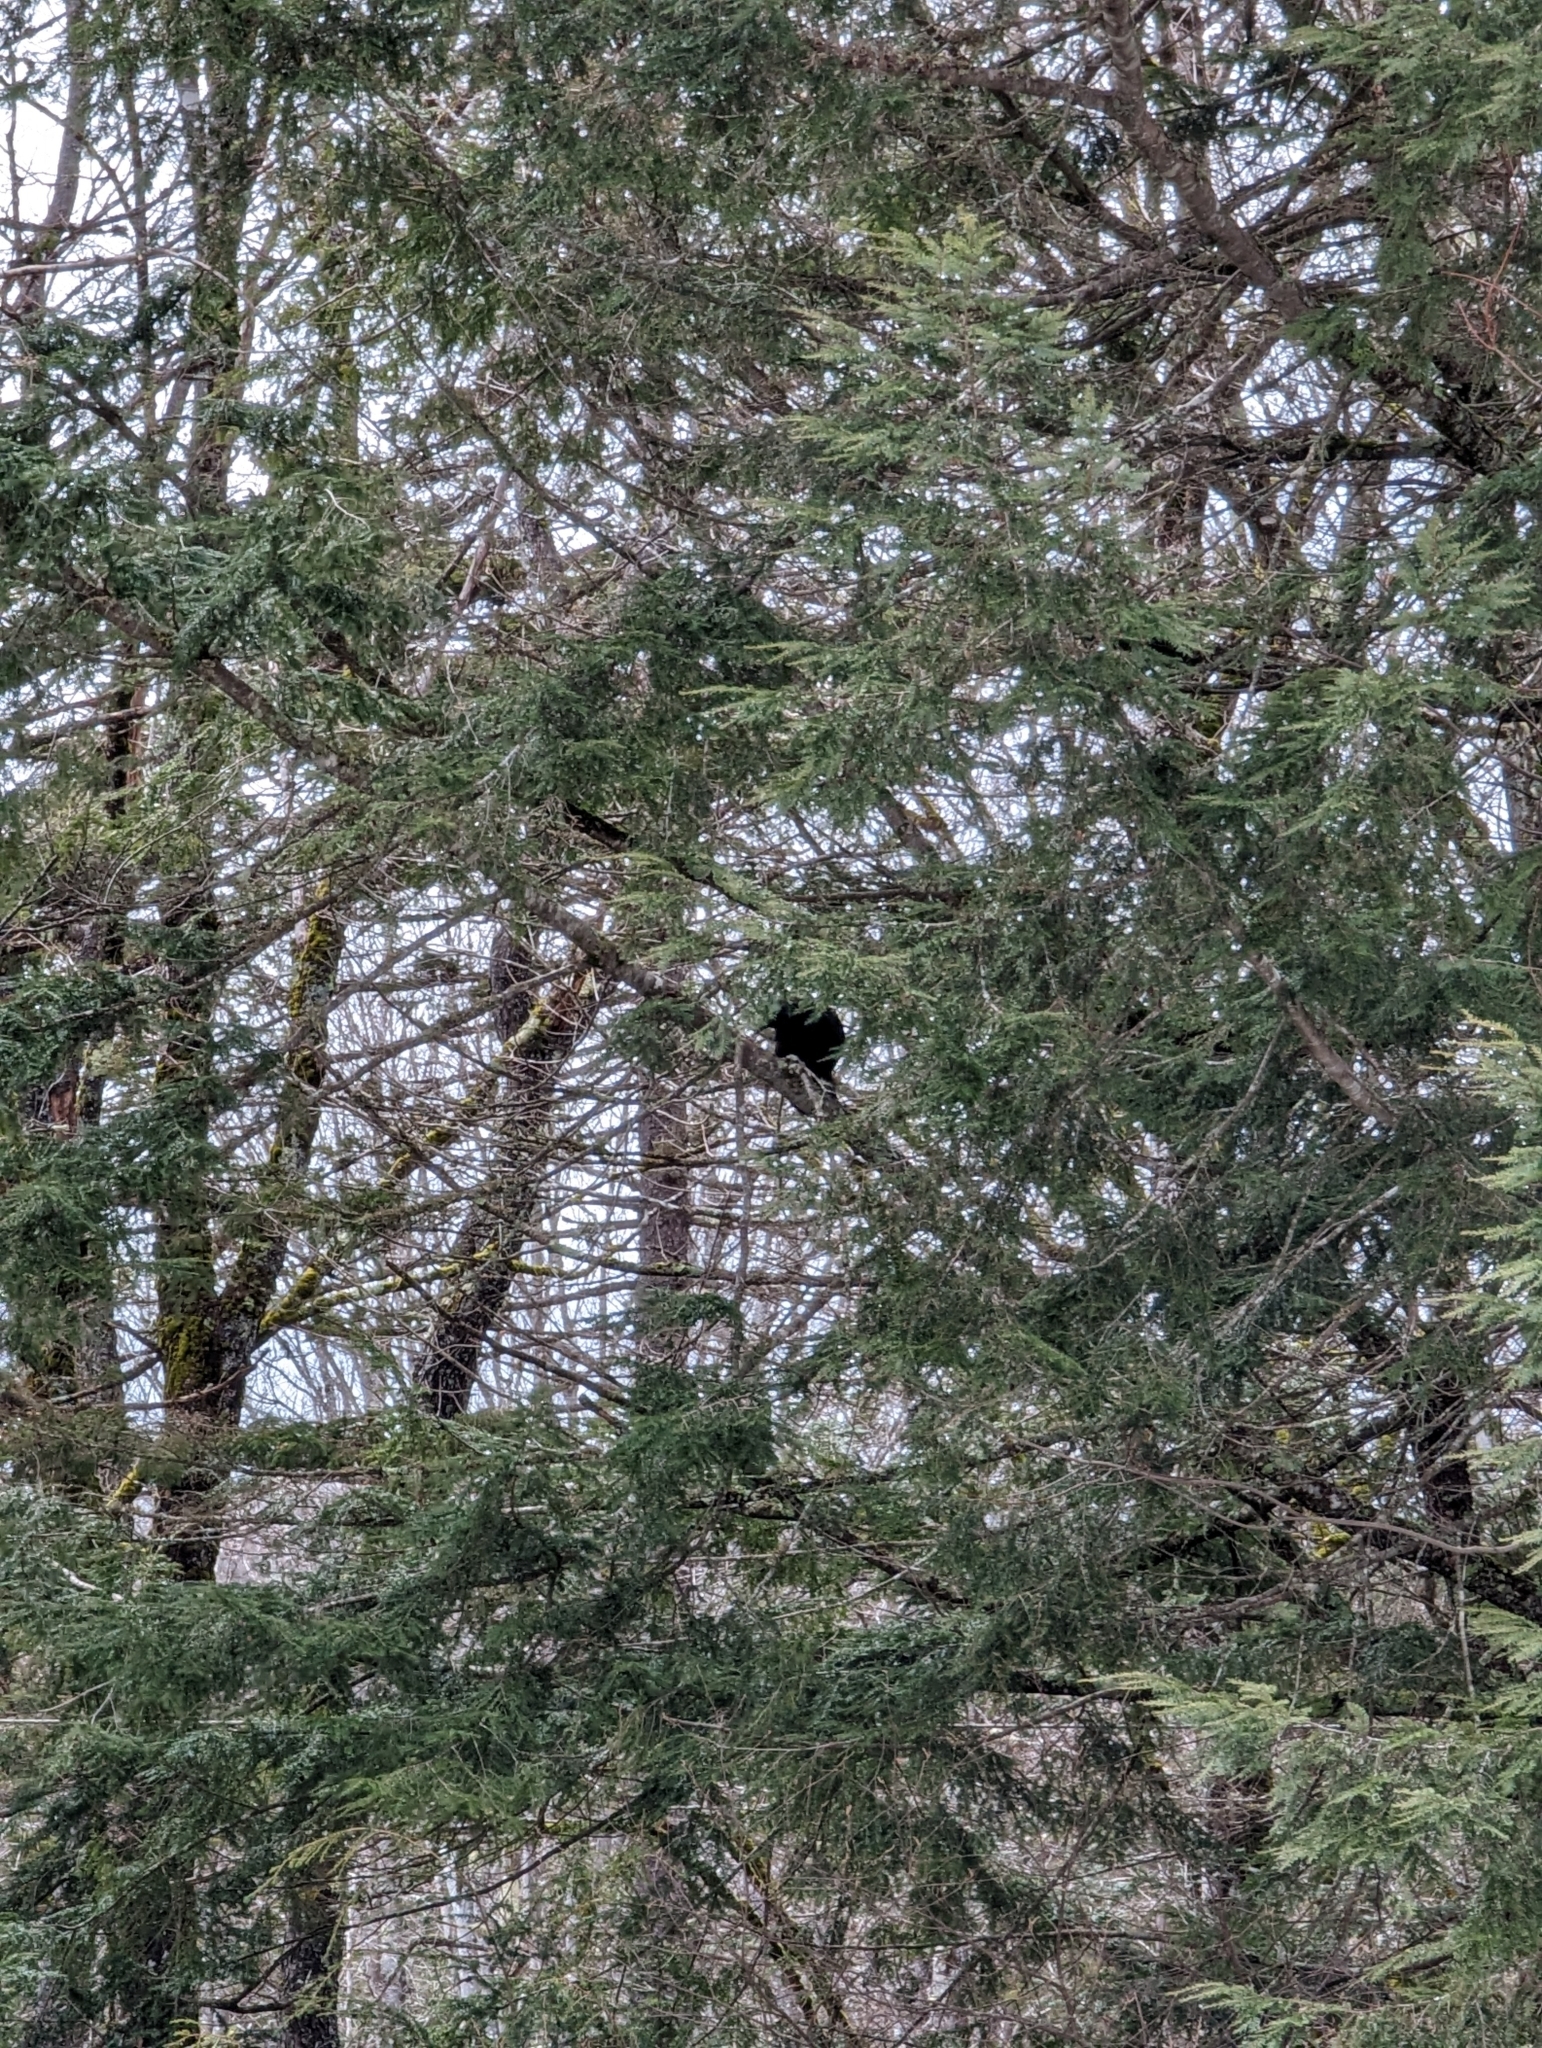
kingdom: Animalia
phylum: Chordata
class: Aves
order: Passeriformes
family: Corvidae
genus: Corvus
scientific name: Corvus brachyrhynchos
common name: American crow
